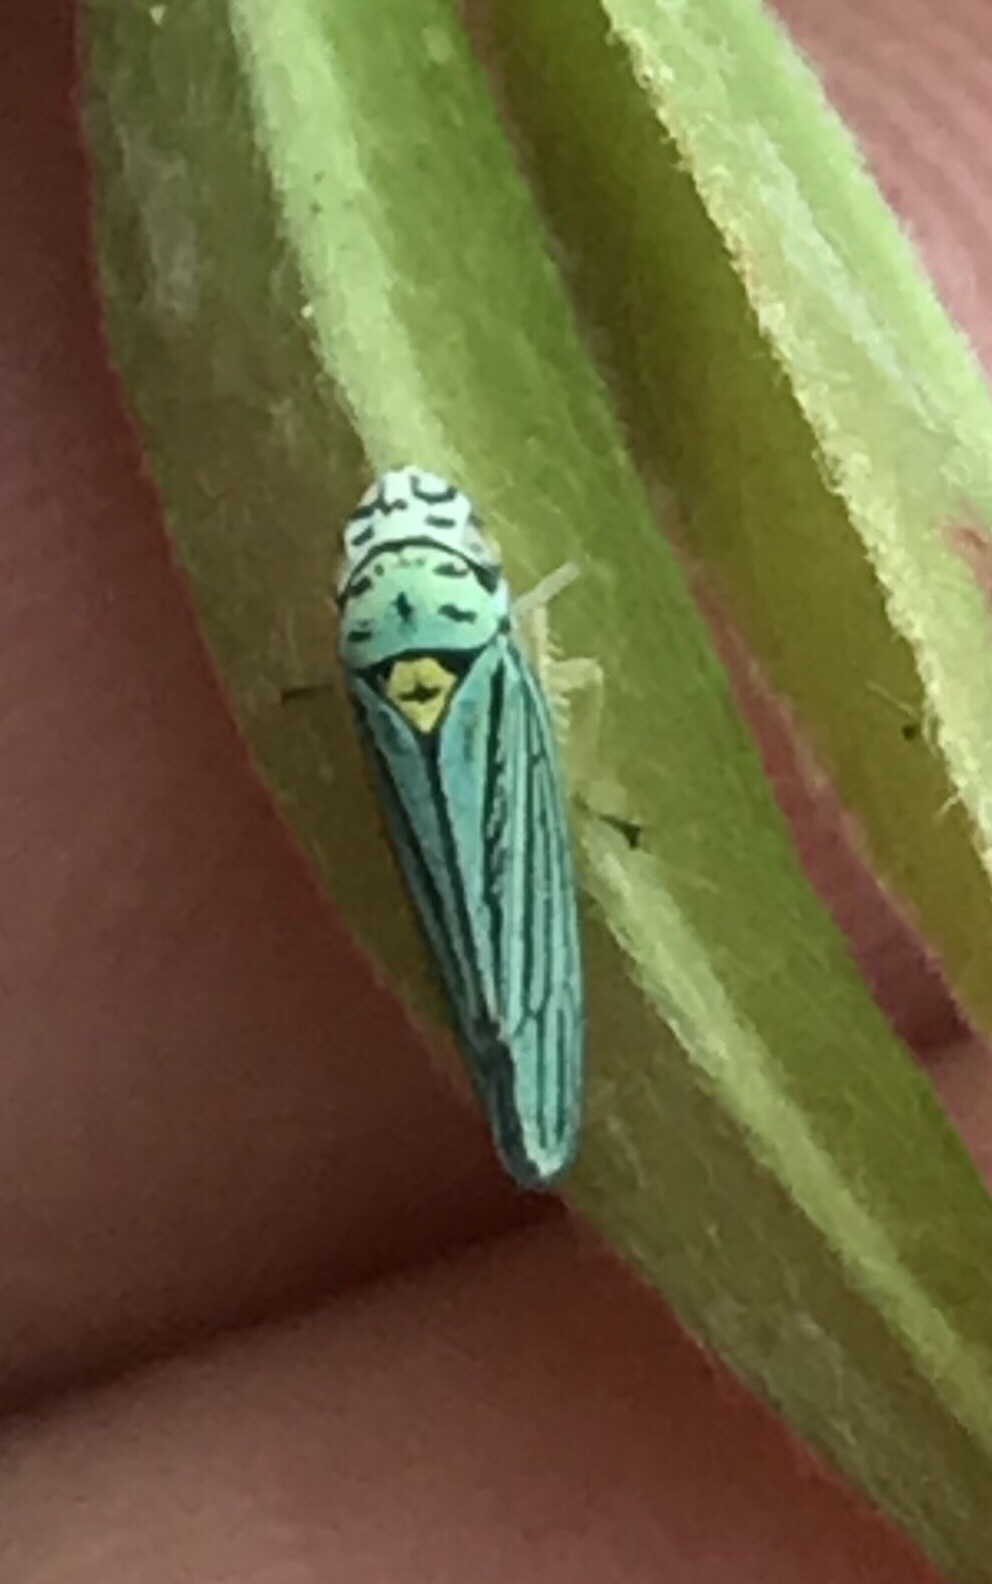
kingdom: Animalia
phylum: Arthropoda
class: Insecta
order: Hemiptera
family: Cicadellidae
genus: Graphocephala
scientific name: Graphocephala atropunctata
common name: Blue-green sharpshooter
